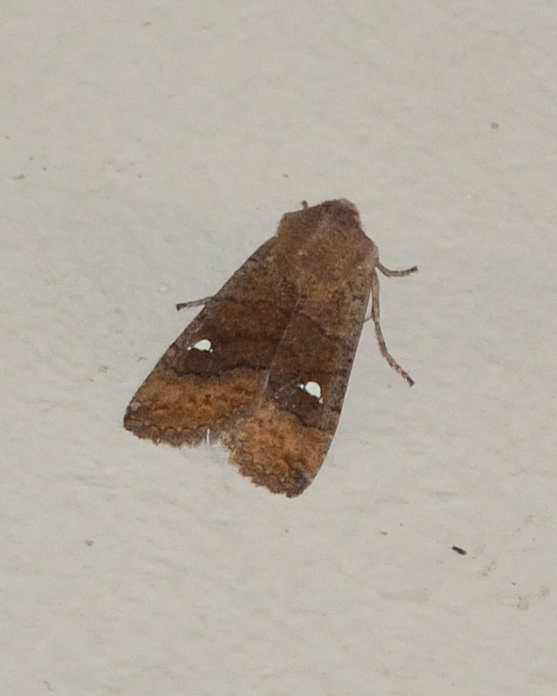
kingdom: Animalia
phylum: Arthropoda
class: Insecta
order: Lepidoptera
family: Noctuidae
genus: Eupsilia
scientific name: Eupsilia transversa
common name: Satellite
